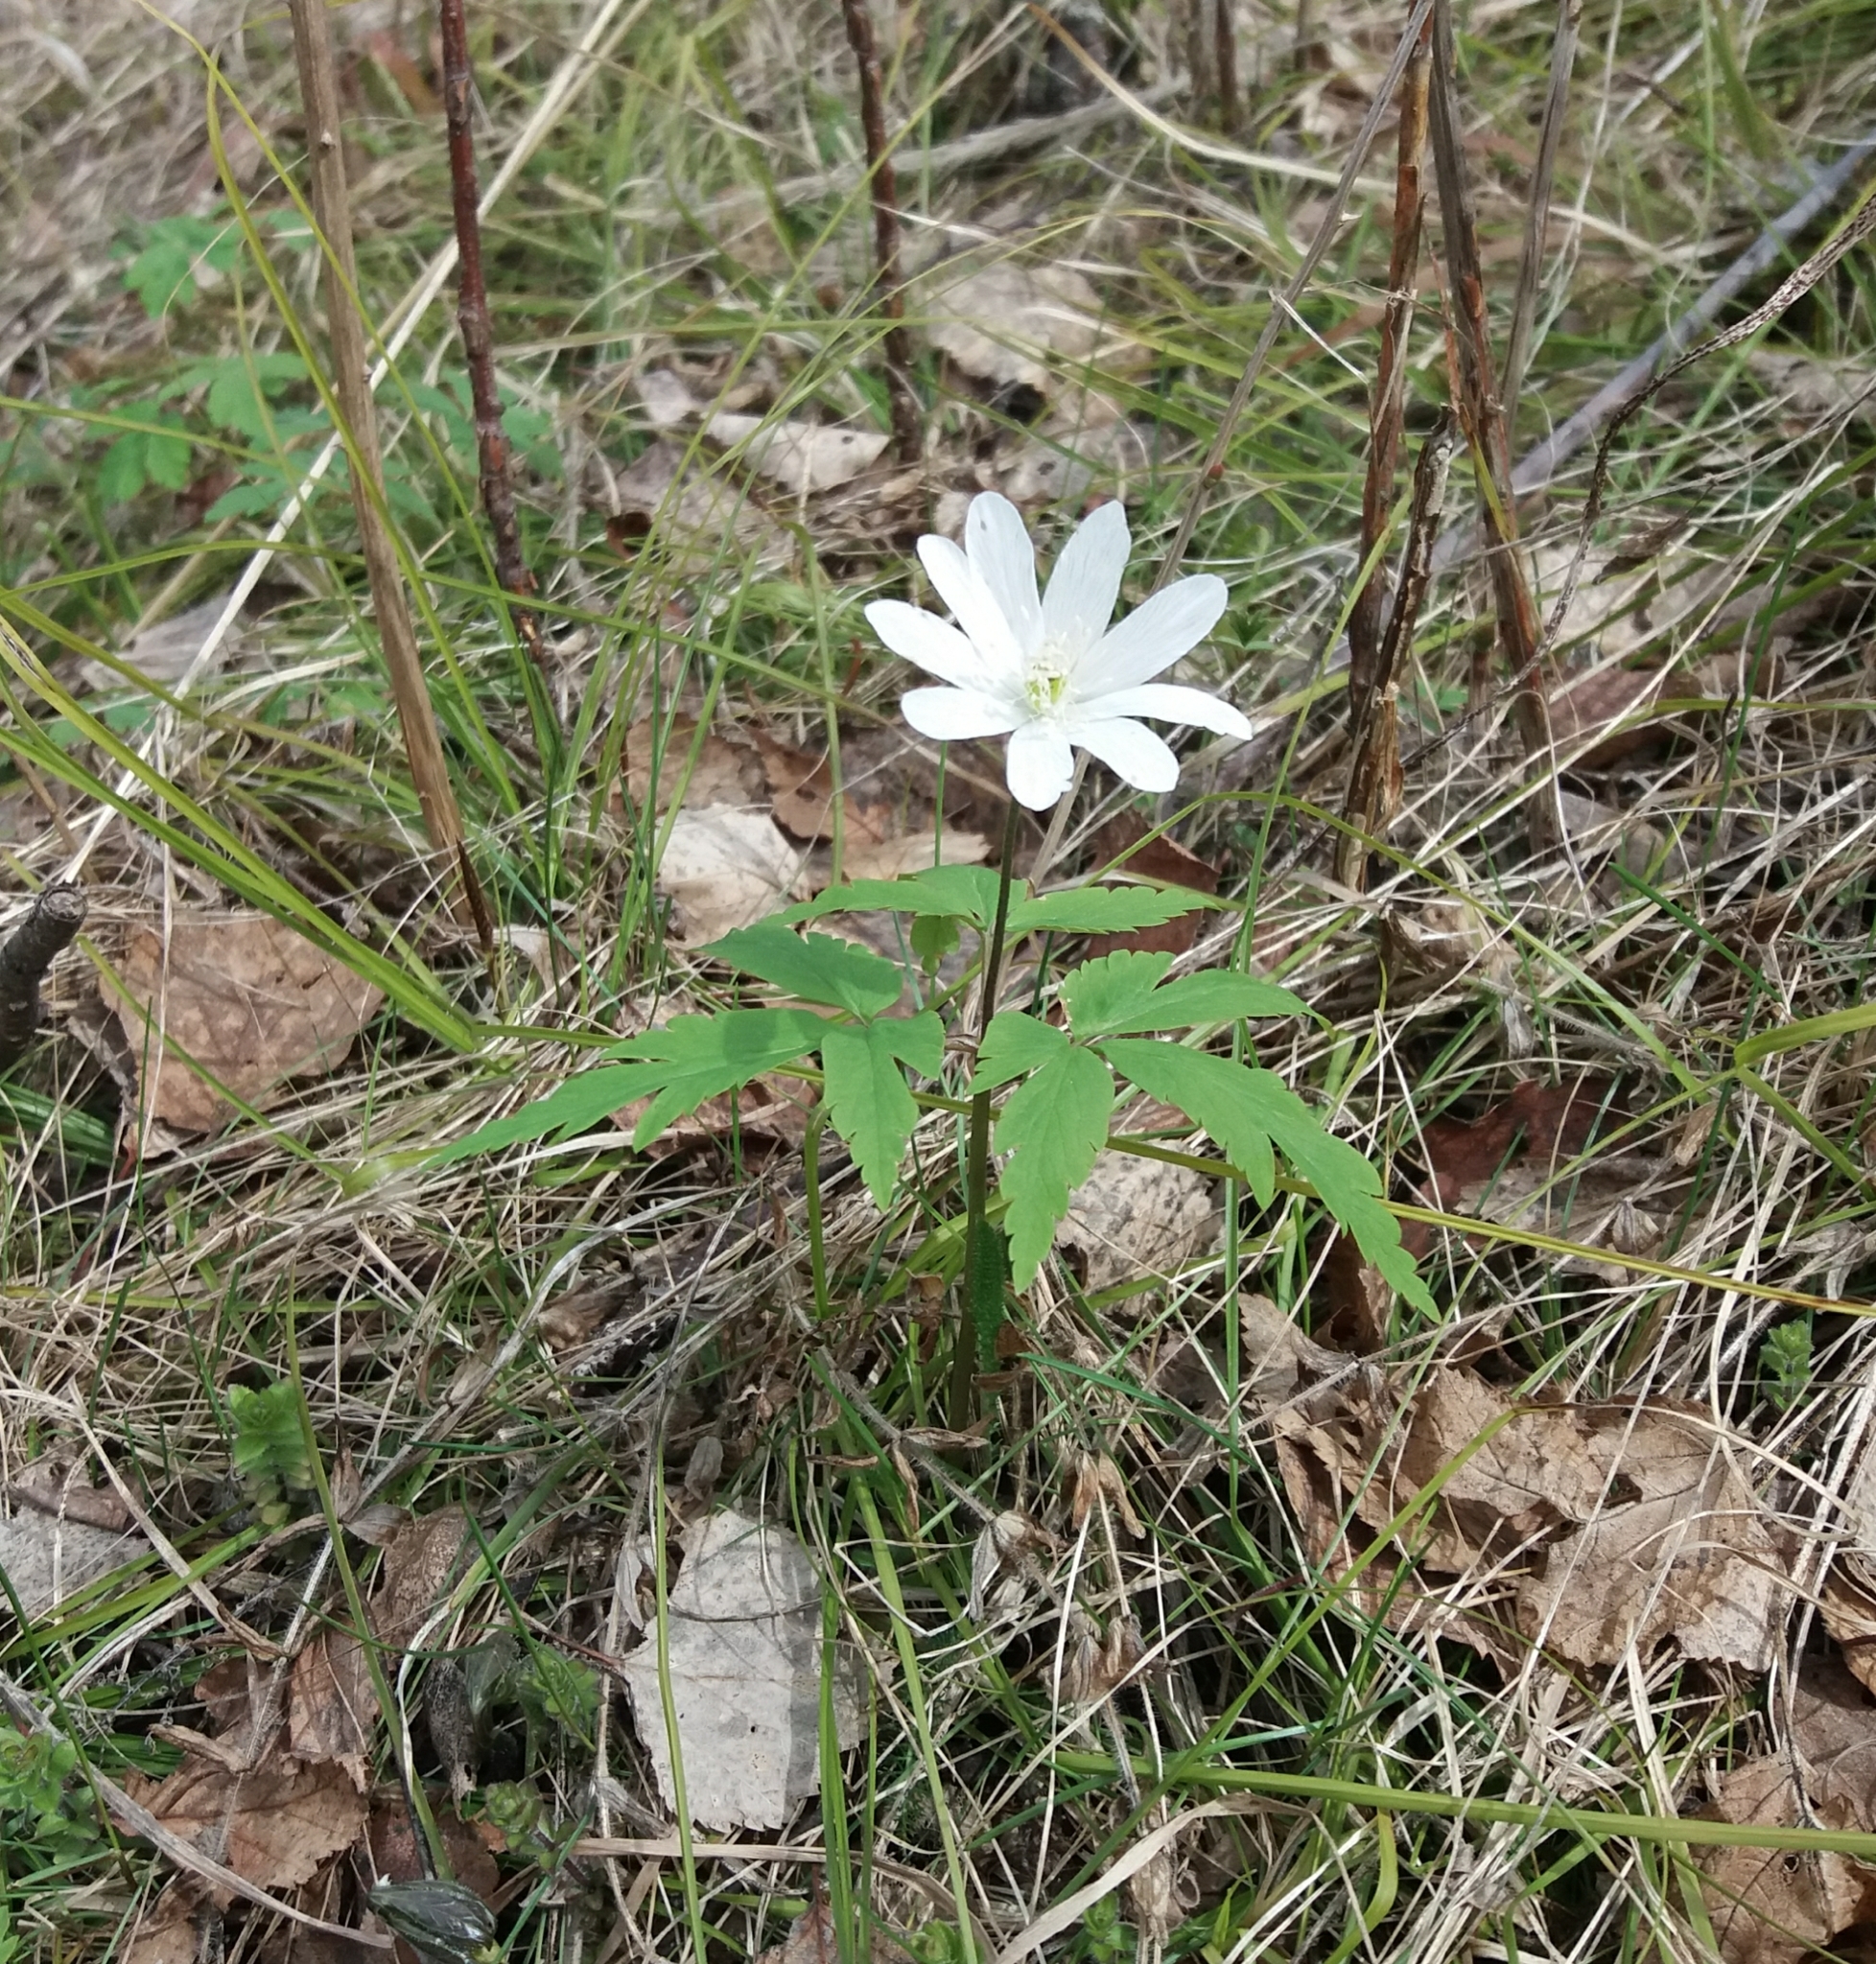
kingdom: Plantae
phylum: Tracheophyta
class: Magnoliopsida
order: Ranunculales
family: Ranunculaceae
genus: Anemone
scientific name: Anemone altaica
